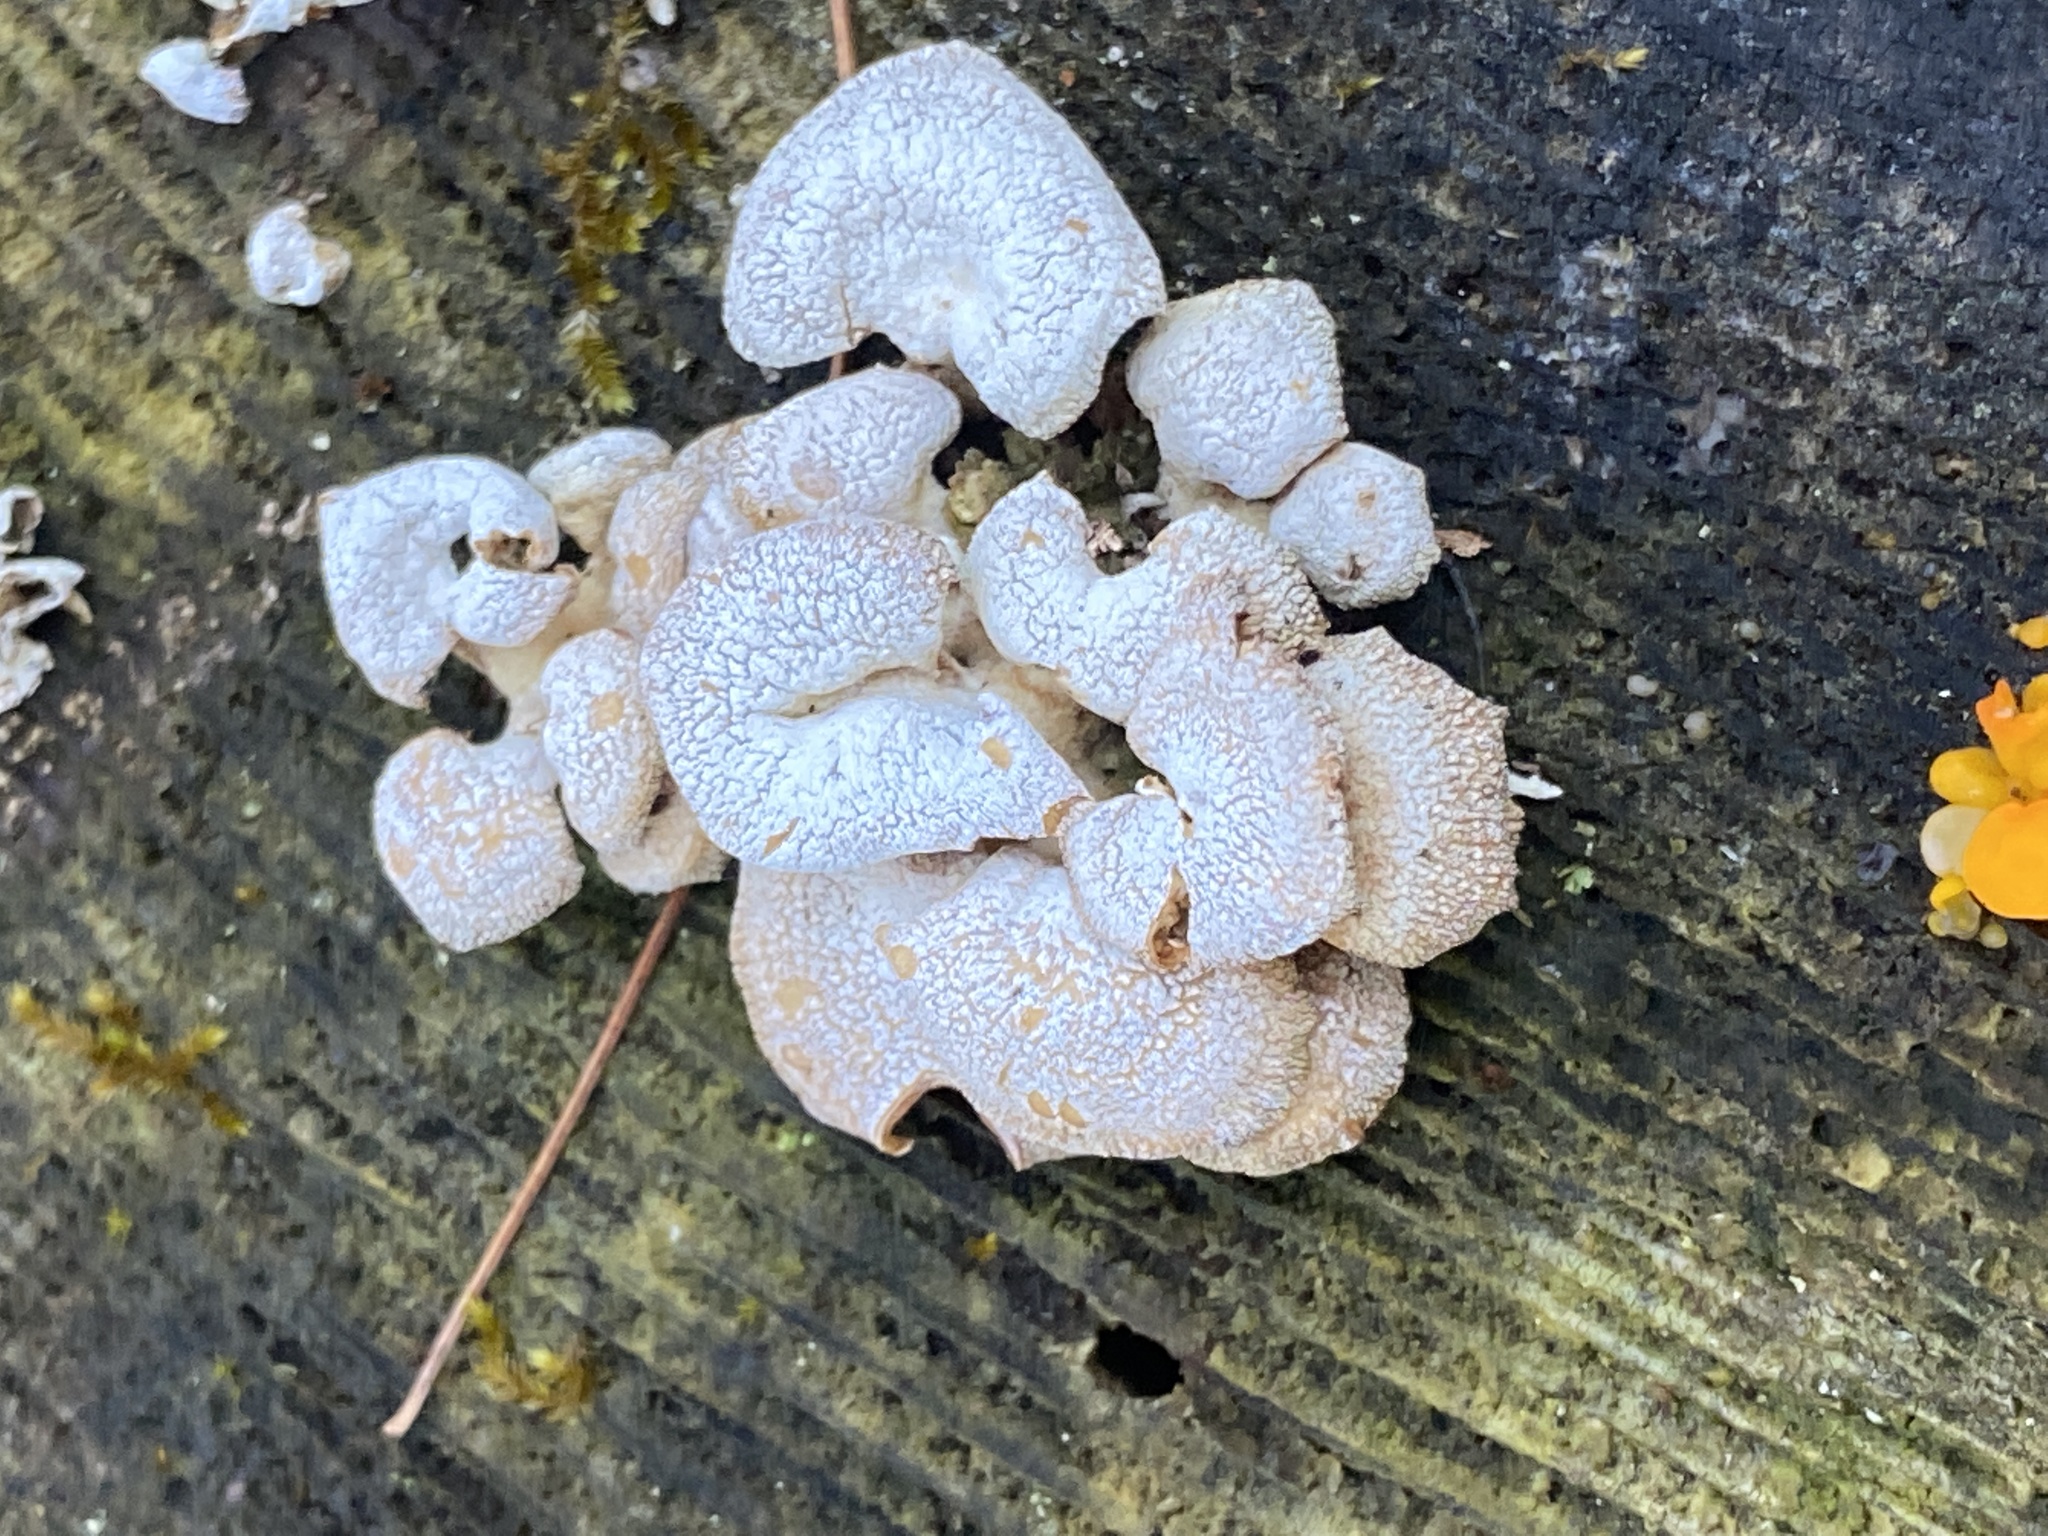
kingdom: Fungi
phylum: Basidiomycota
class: Agaricomycetes
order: Agaricales
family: Mycenaceae
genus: Panellus
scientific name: Panellus stipticus
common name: Bitter oysterling
